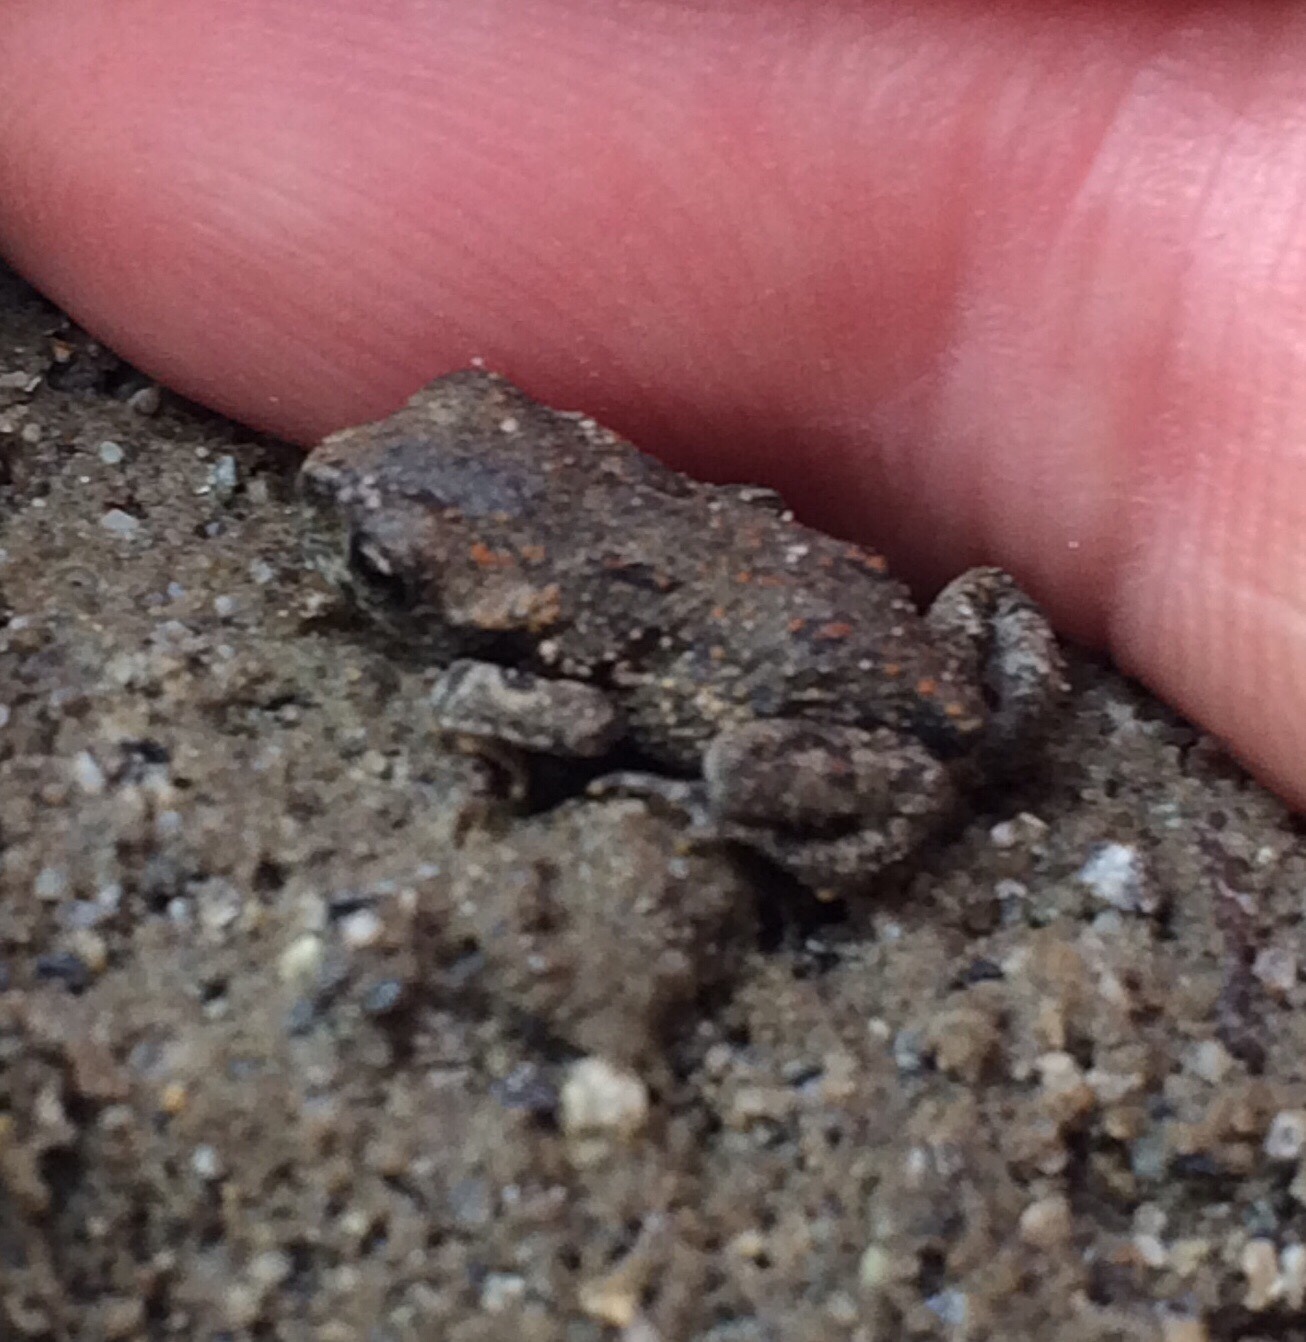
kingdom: Animalia
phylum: Chordata
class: Amphibia
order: Anura
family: Bufonidae
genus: Anaxyrus
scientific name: Anaxyrus boreas
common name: Western toad
